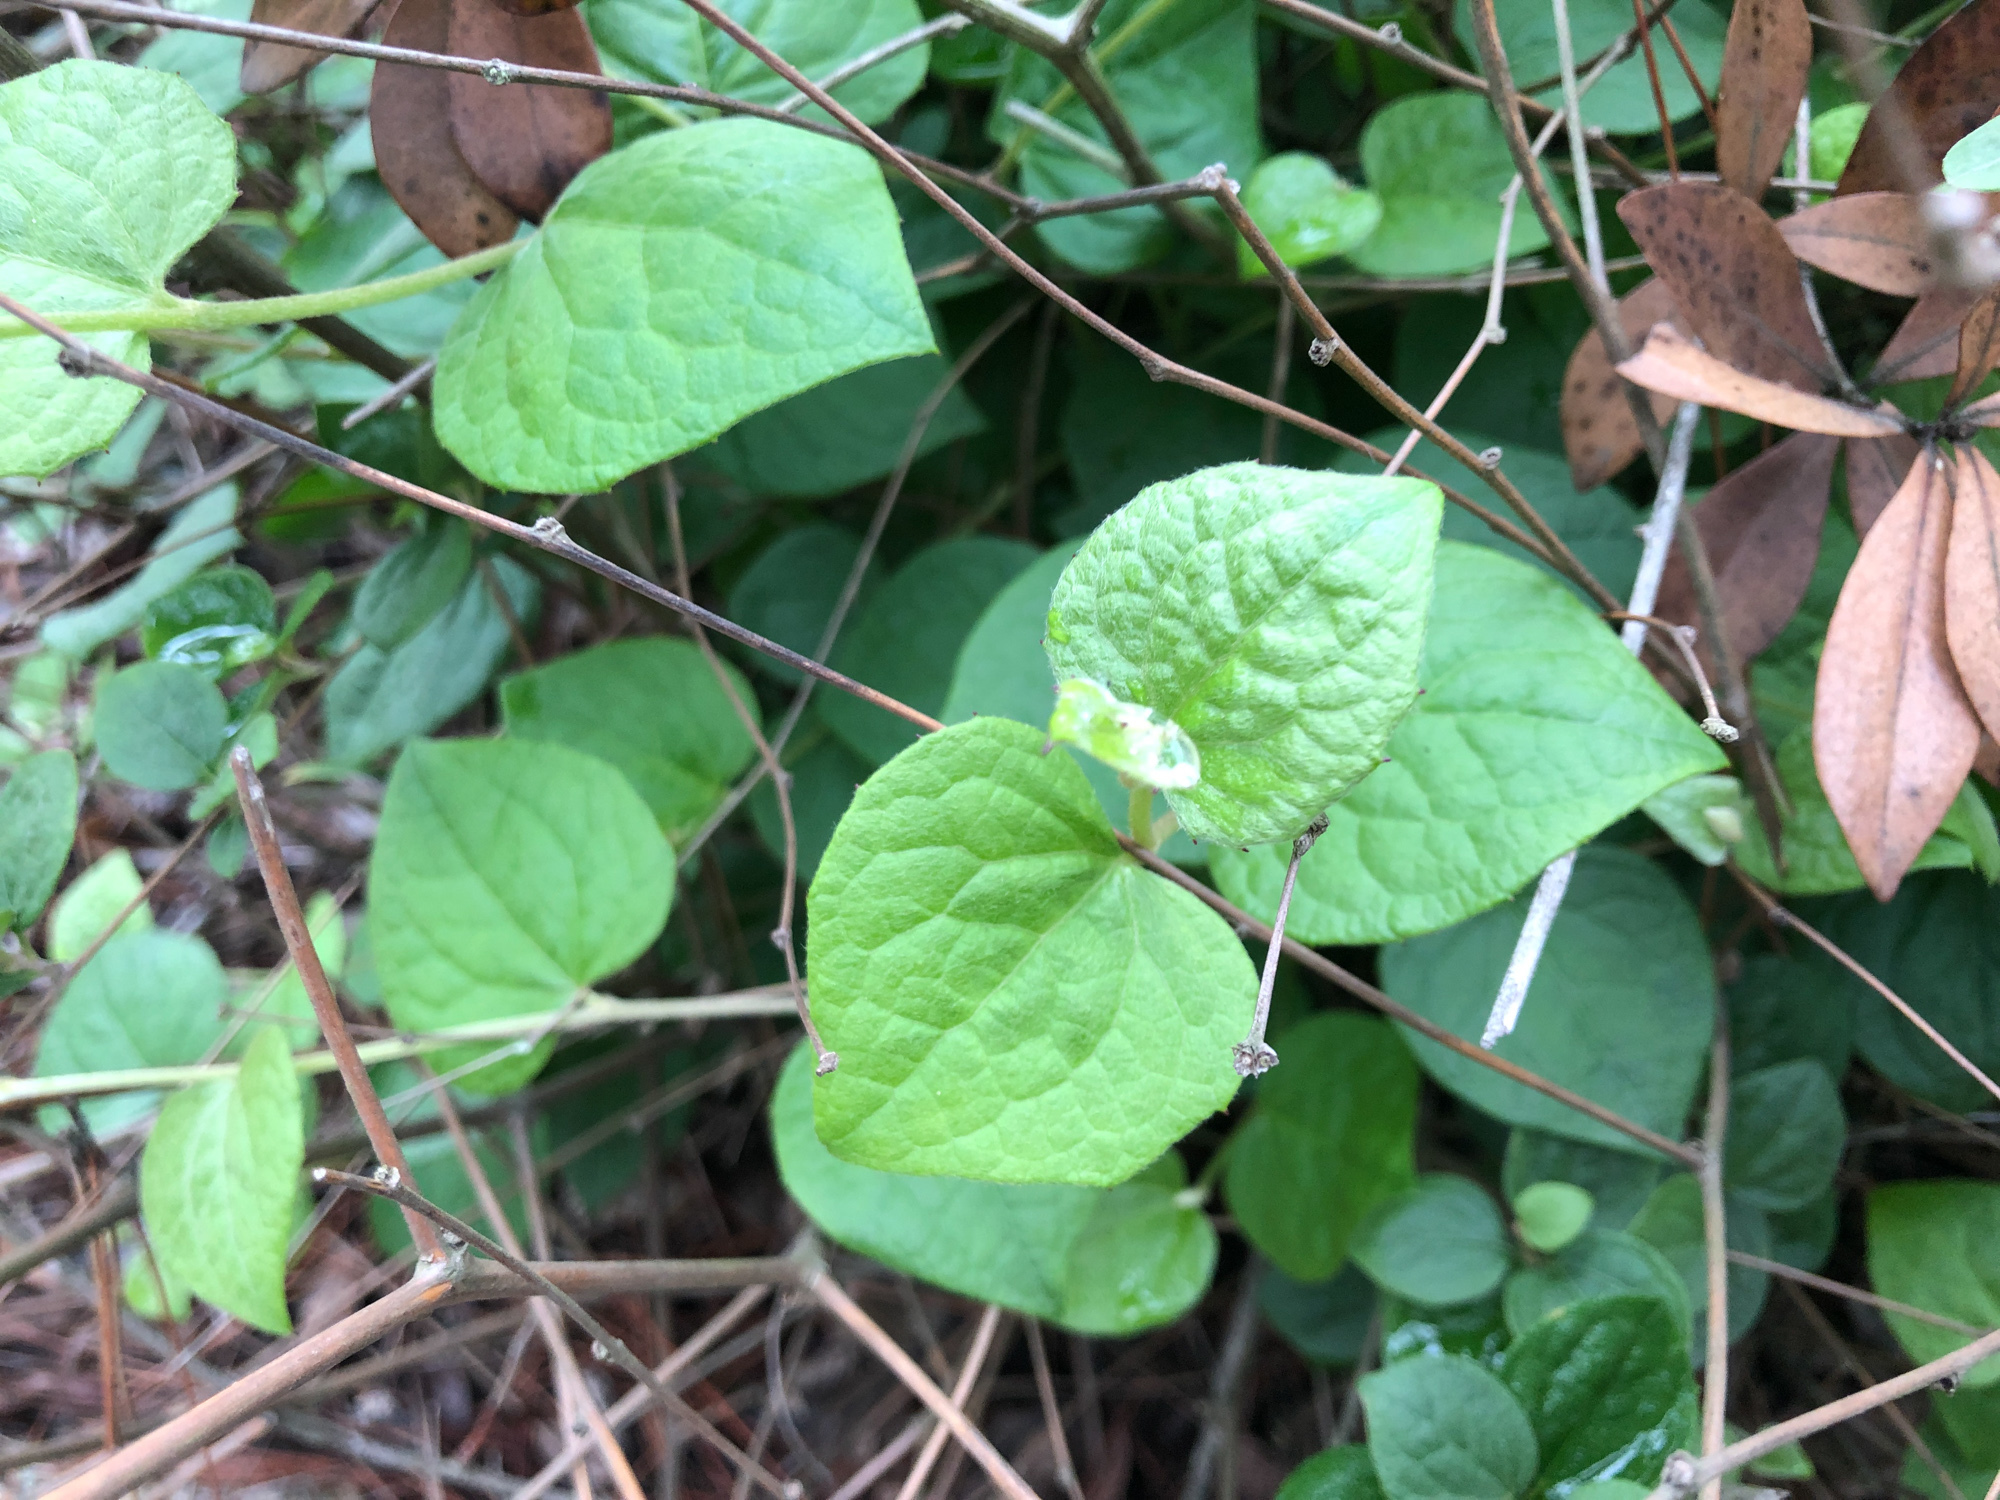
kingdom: Plantae
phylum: Tracheophyta
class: Magnoliopsida
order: Asterales
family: Asteraceae
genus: Pertya
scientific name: Pertya pubescens
